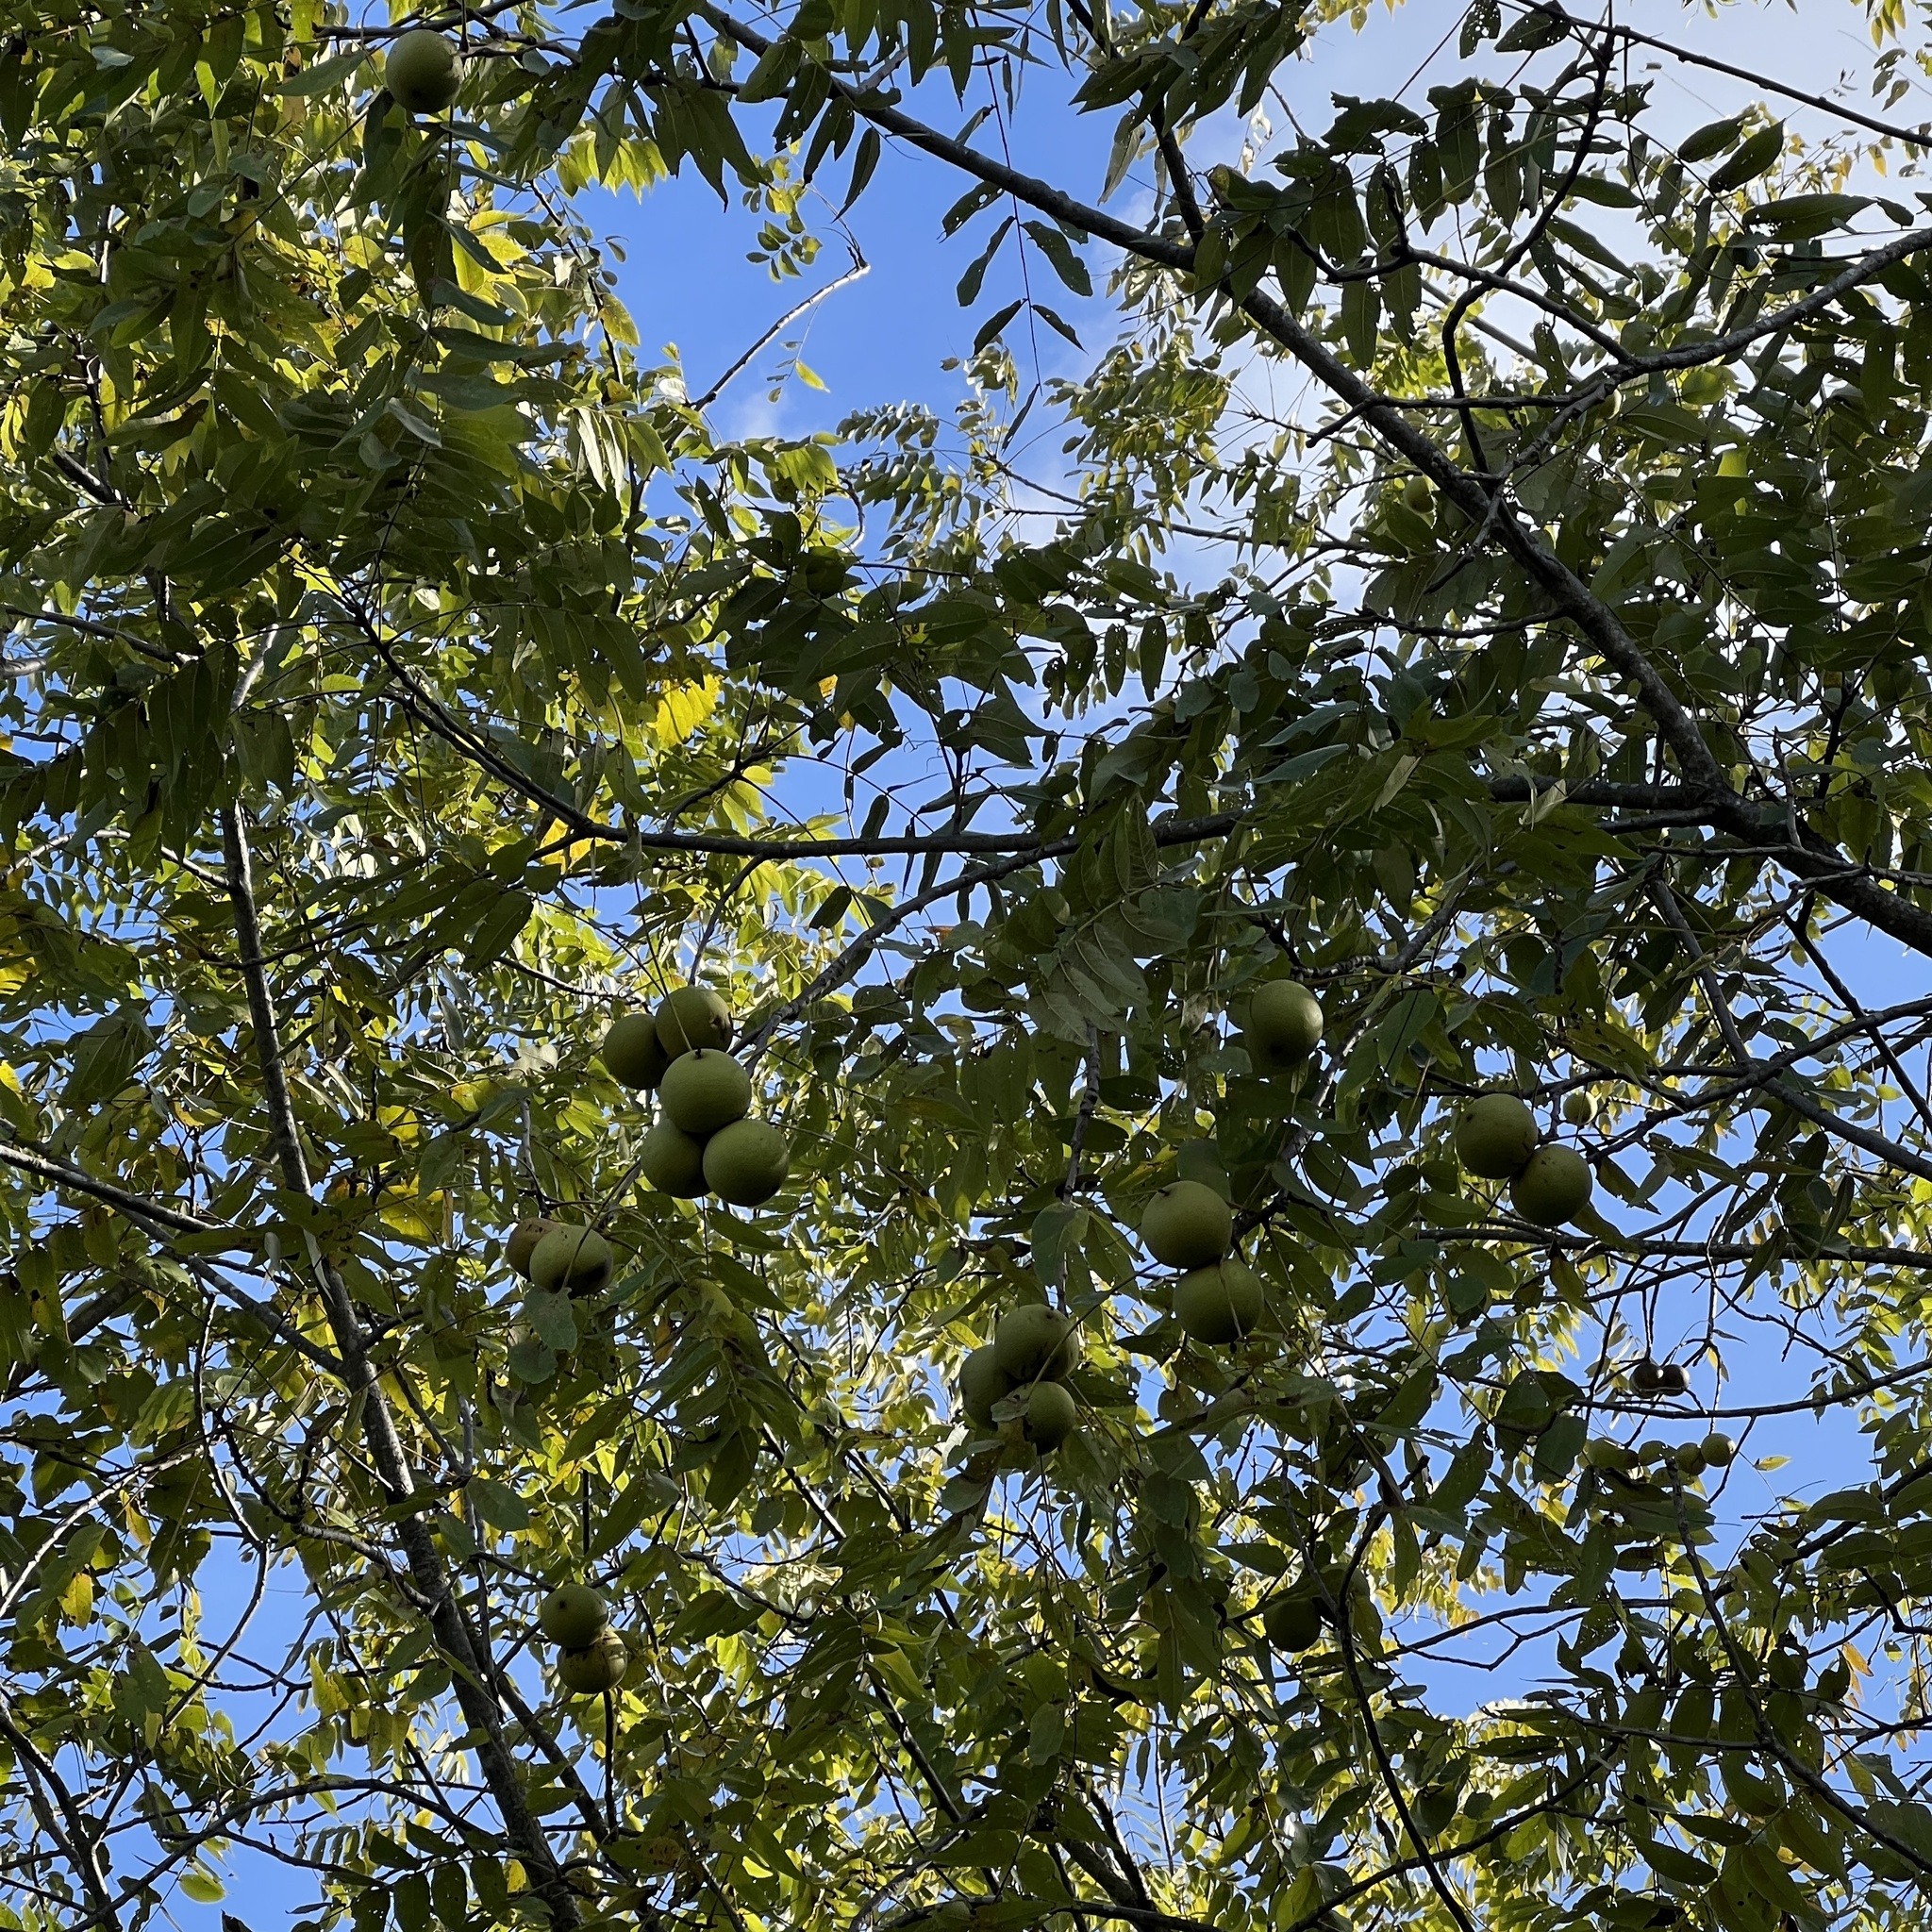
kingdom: Plantae
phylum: Tracheophyta
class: Magnoliopsida
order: Fagales
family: Juglandaceae
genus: Juglans
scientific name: Juglans nigra
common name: Black walnut
